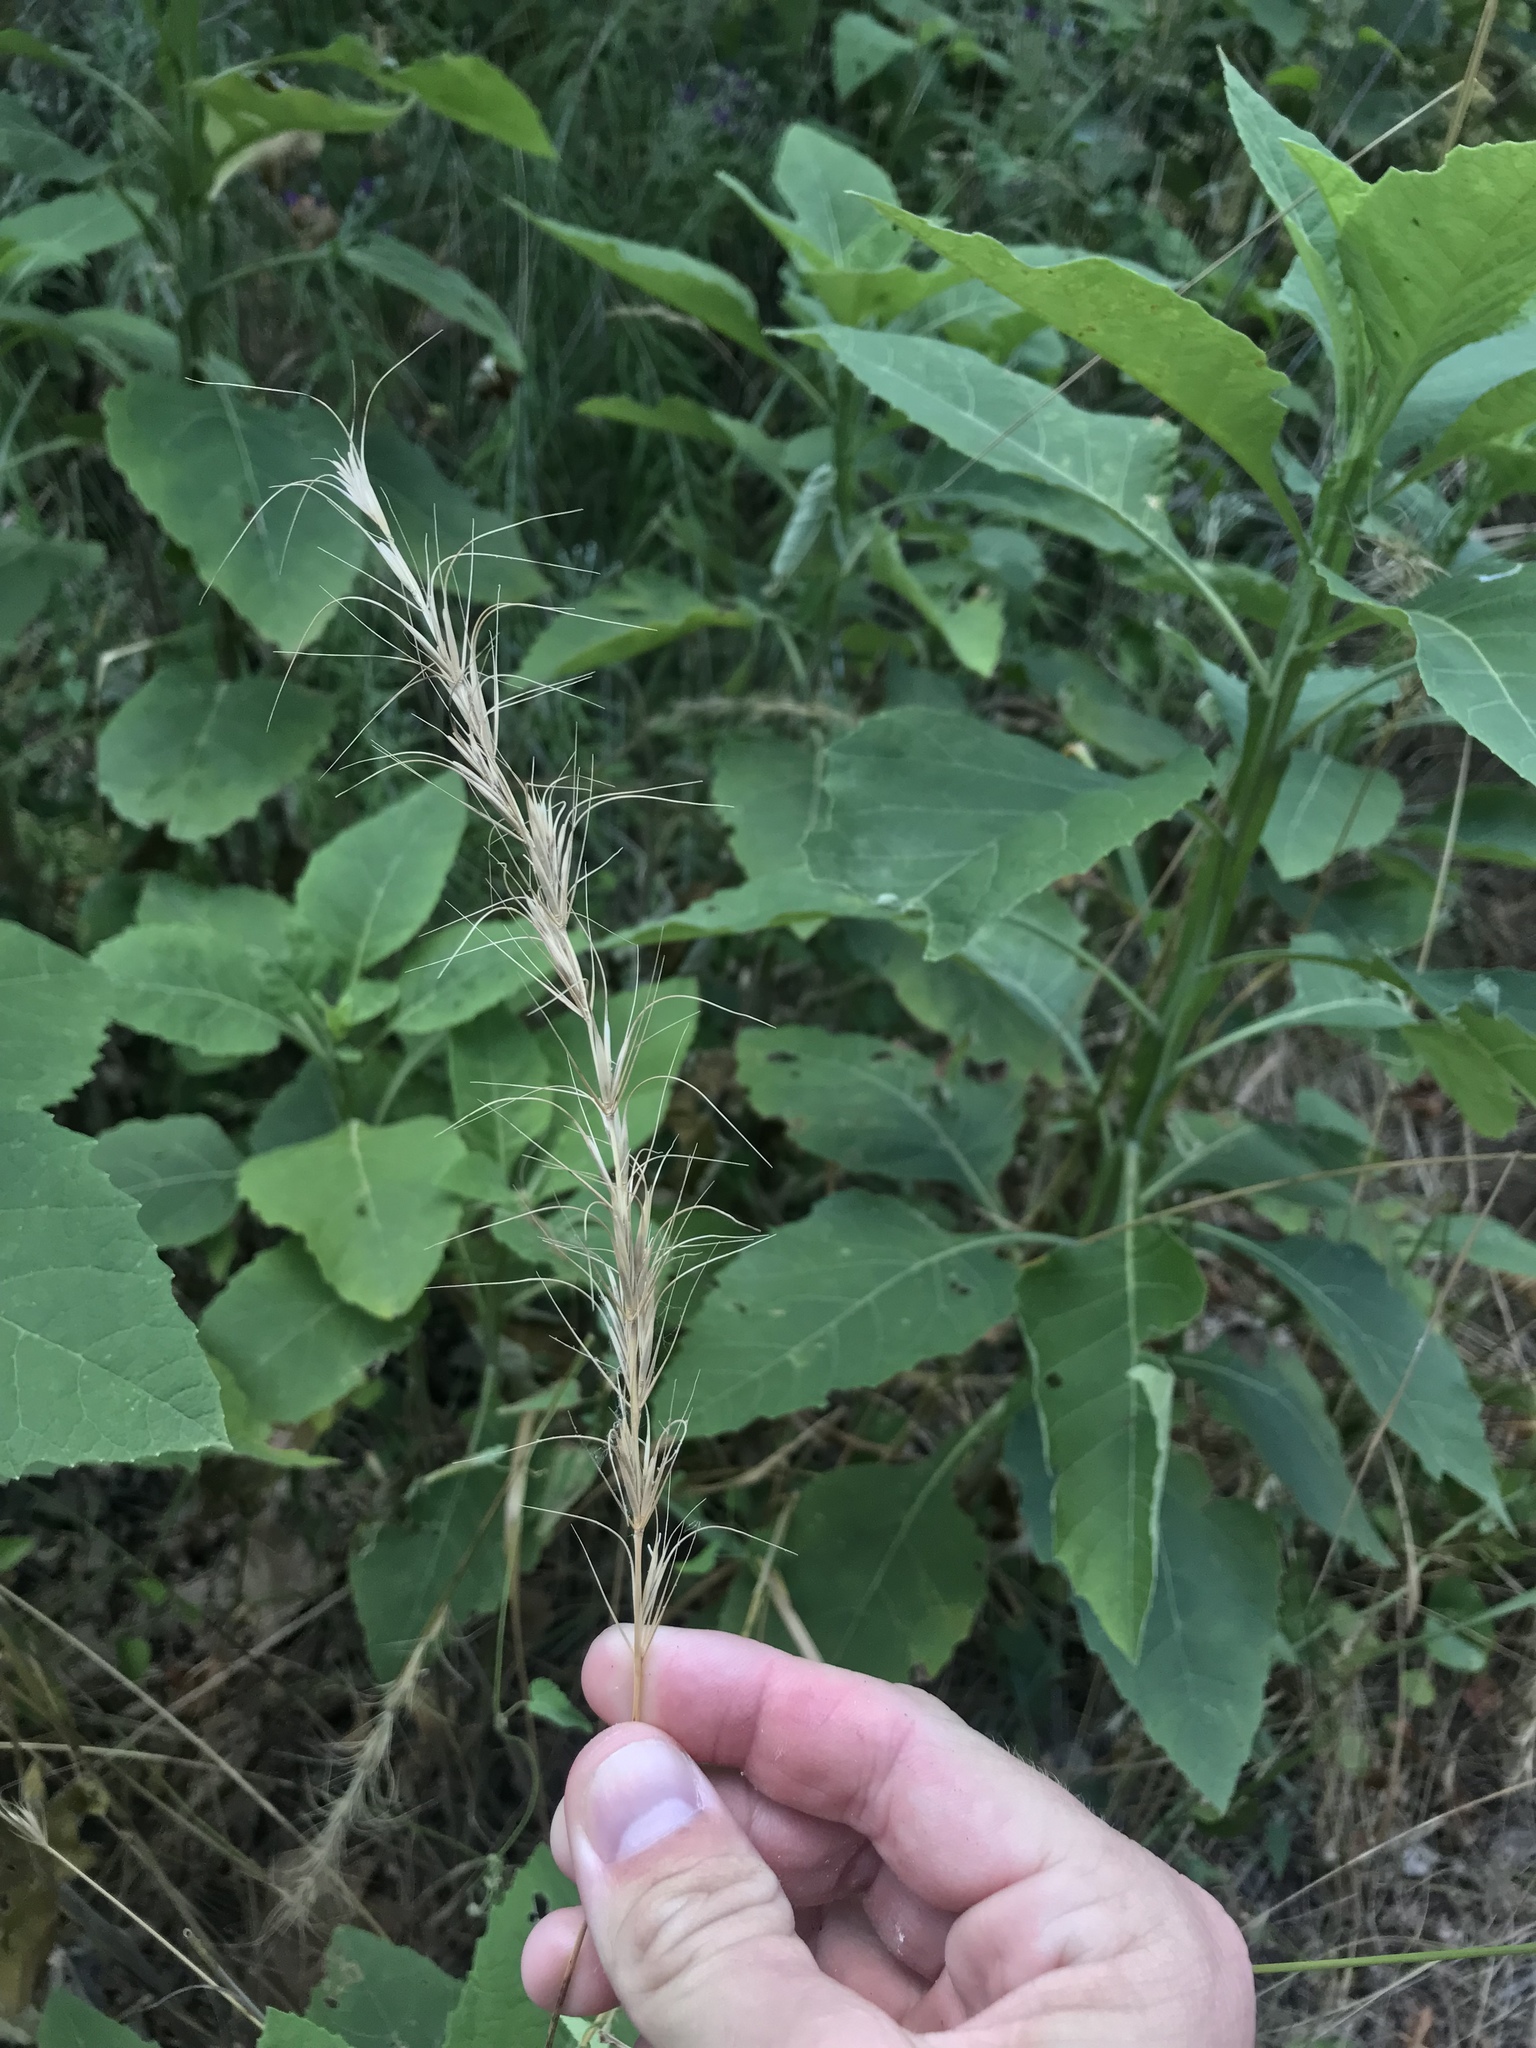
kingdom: Plantae
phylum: Tracheophyta
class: Liliopsida
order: Poales
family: Poaceae
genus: Elymus
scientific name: Elymus canadensis
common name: Canada wild rye
